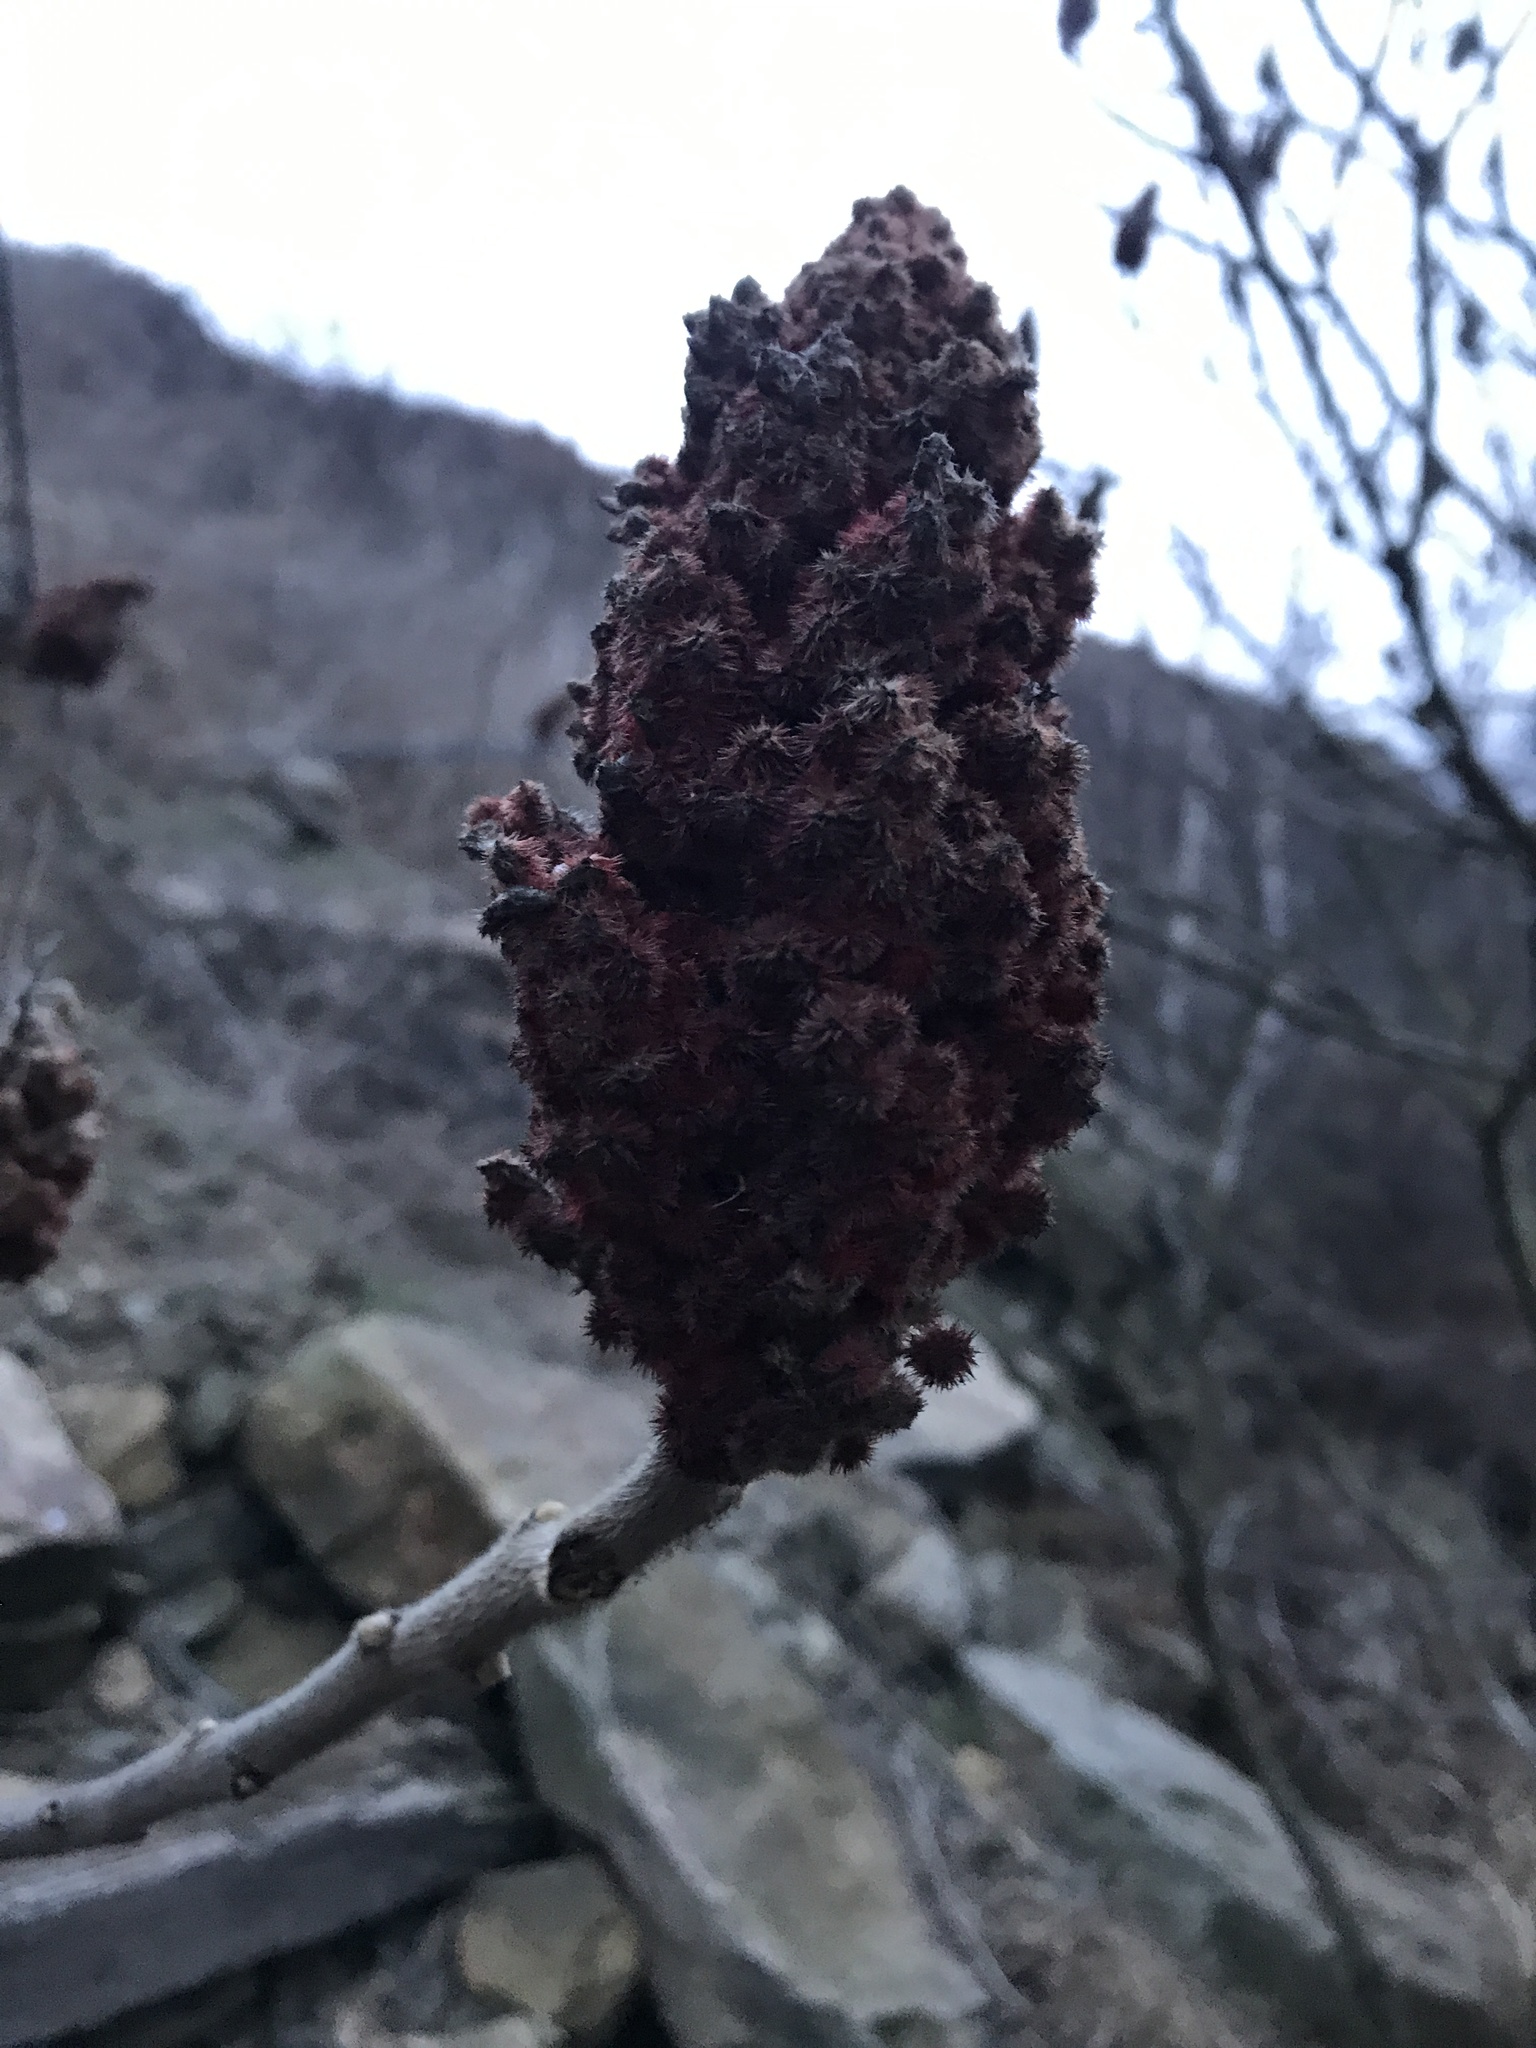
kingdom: Plantae
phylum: Tracheophyta
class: Magnoliopsida
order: Sapindales
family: Anacardiaceae
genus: Rhus
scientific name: Rhus typhina
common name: Staghorn sumac
